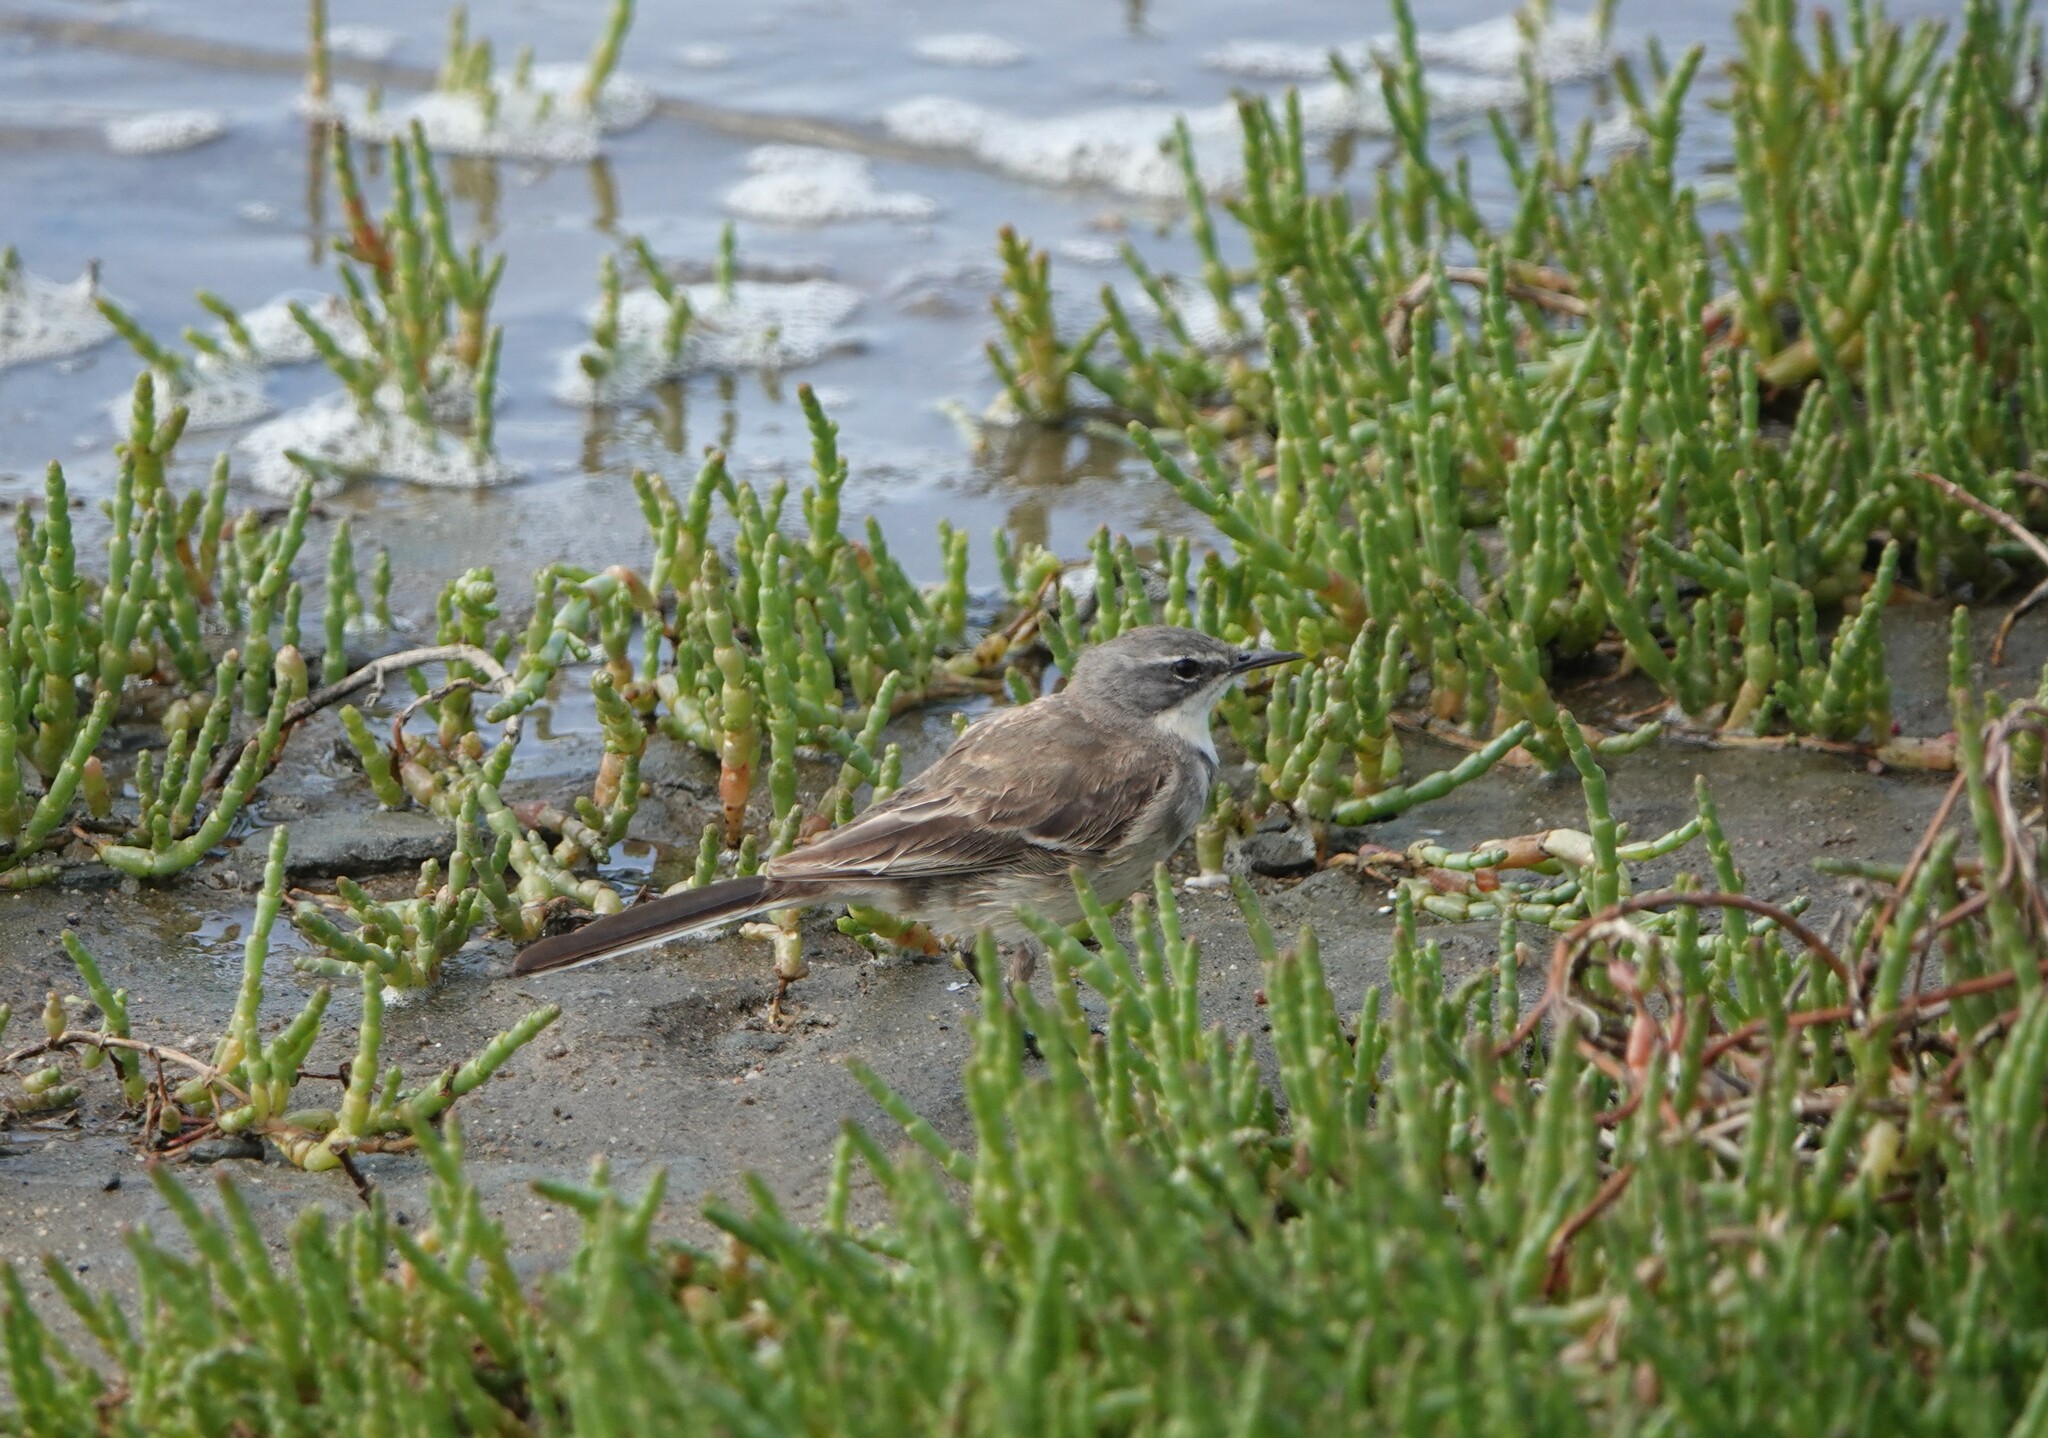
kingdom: Animalia
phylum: Chordata
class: Aves
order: Passeriformes
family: Motacillidae
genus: Motacilla
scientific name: Motacilla capensis
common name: Cape wagtail
